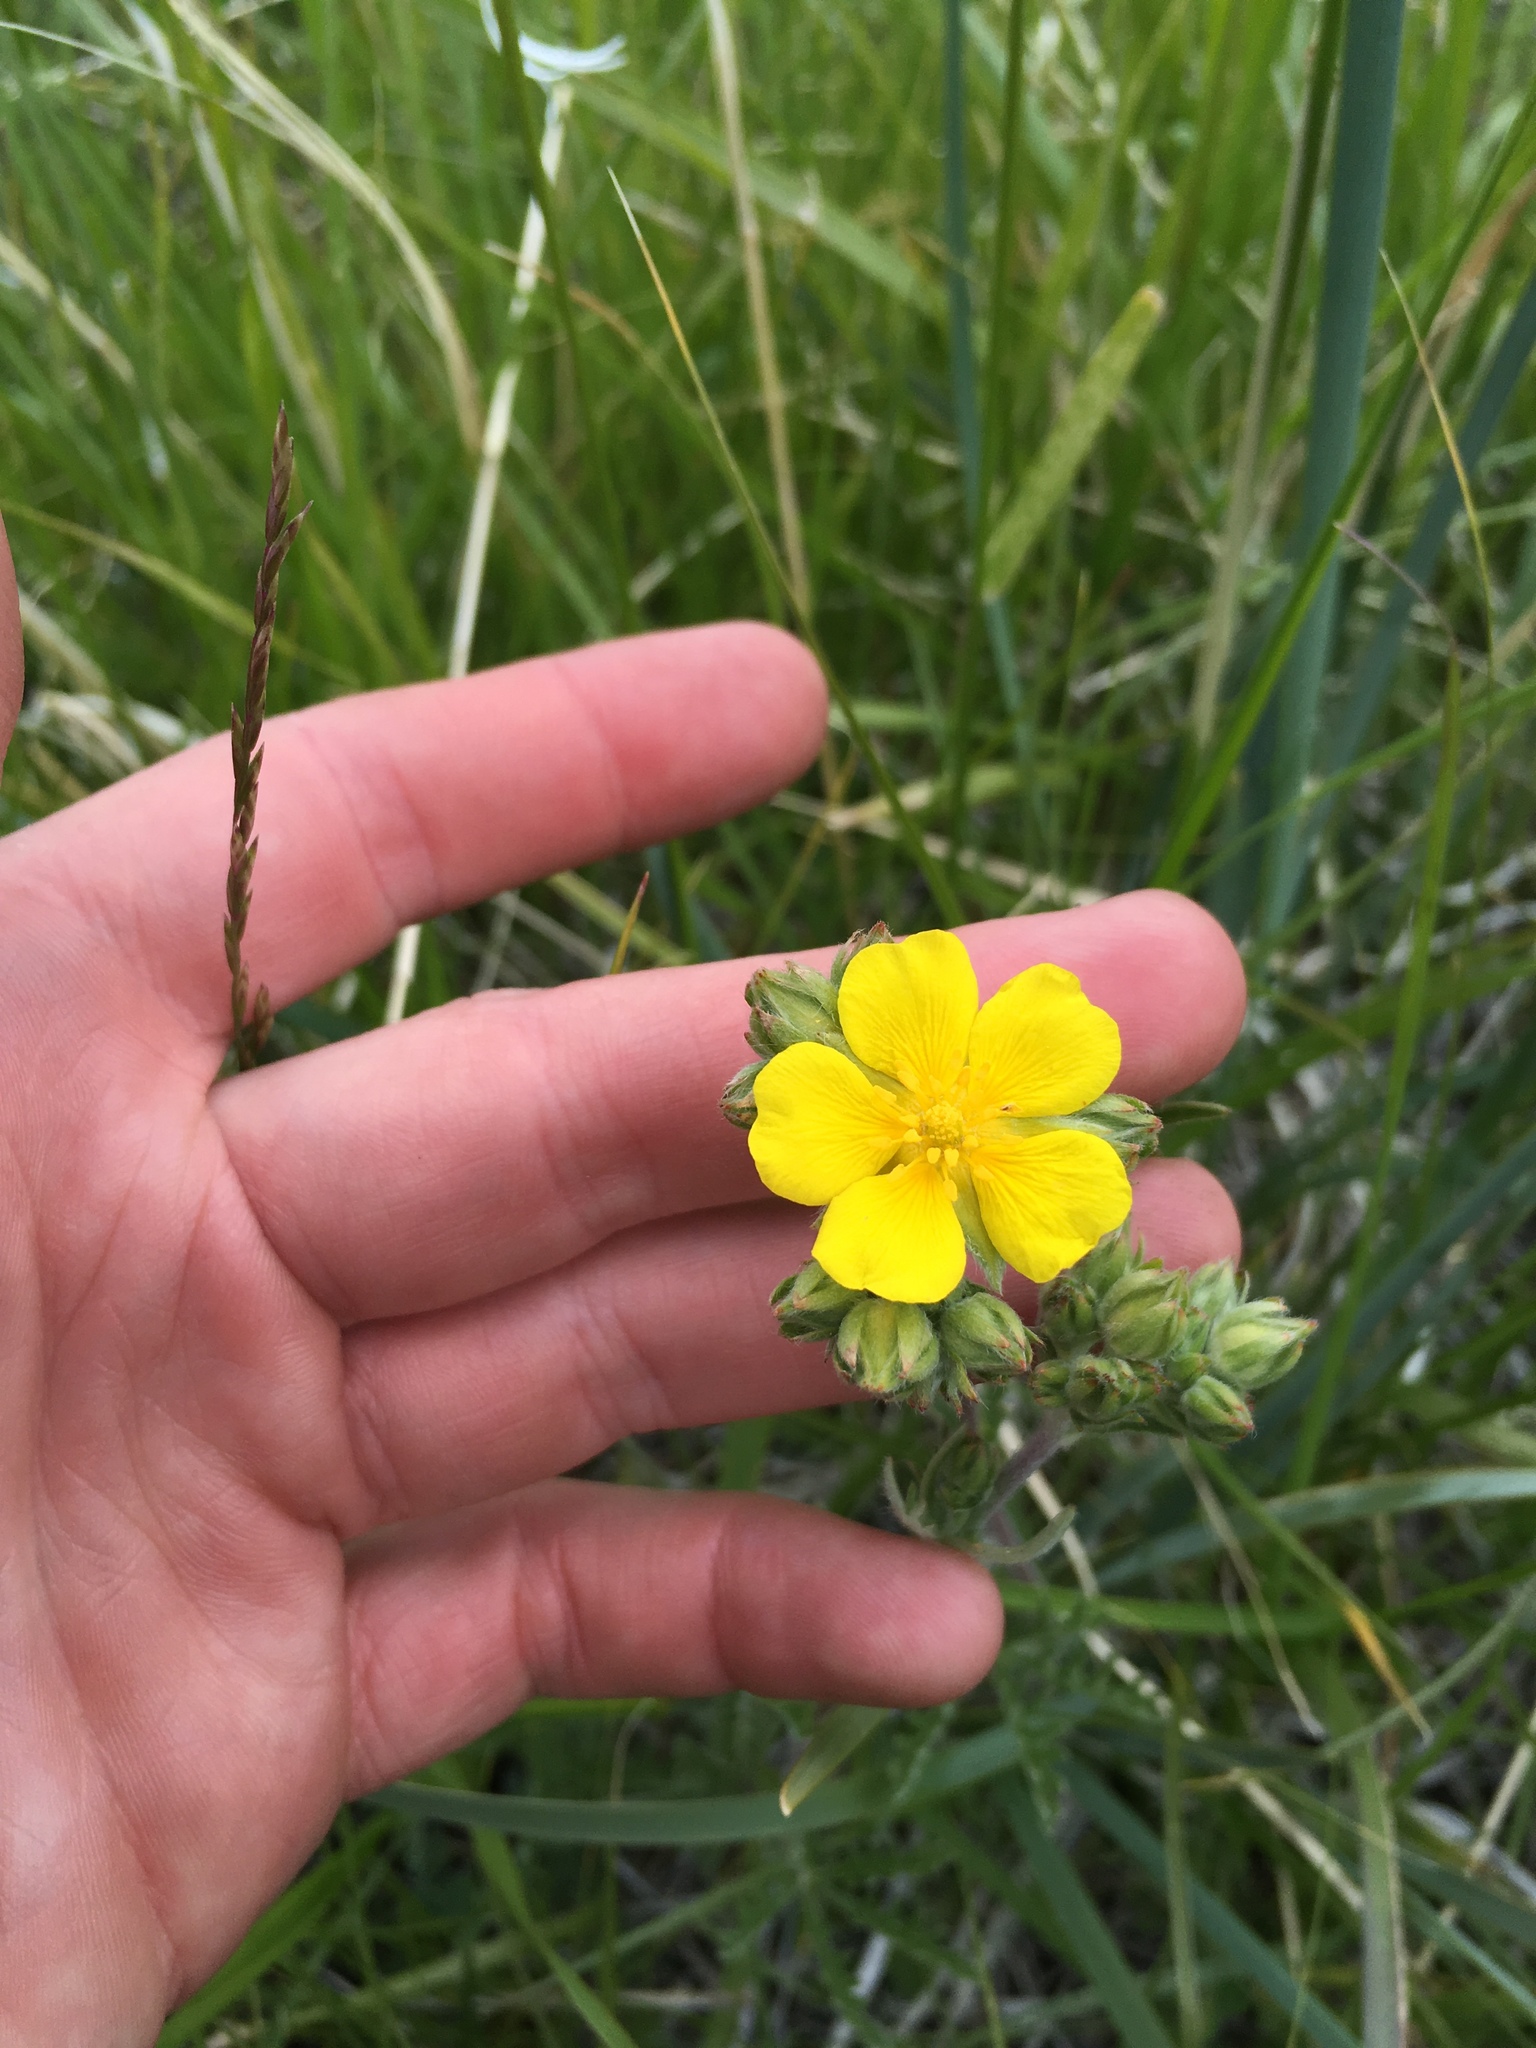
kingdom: Plantae
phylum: Tracheophyta
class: Magnoliopsida
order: Rosales
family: Rosaceae
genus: Potentilla
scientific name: Potentilla gracilis
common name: Graceful cinquefoil
